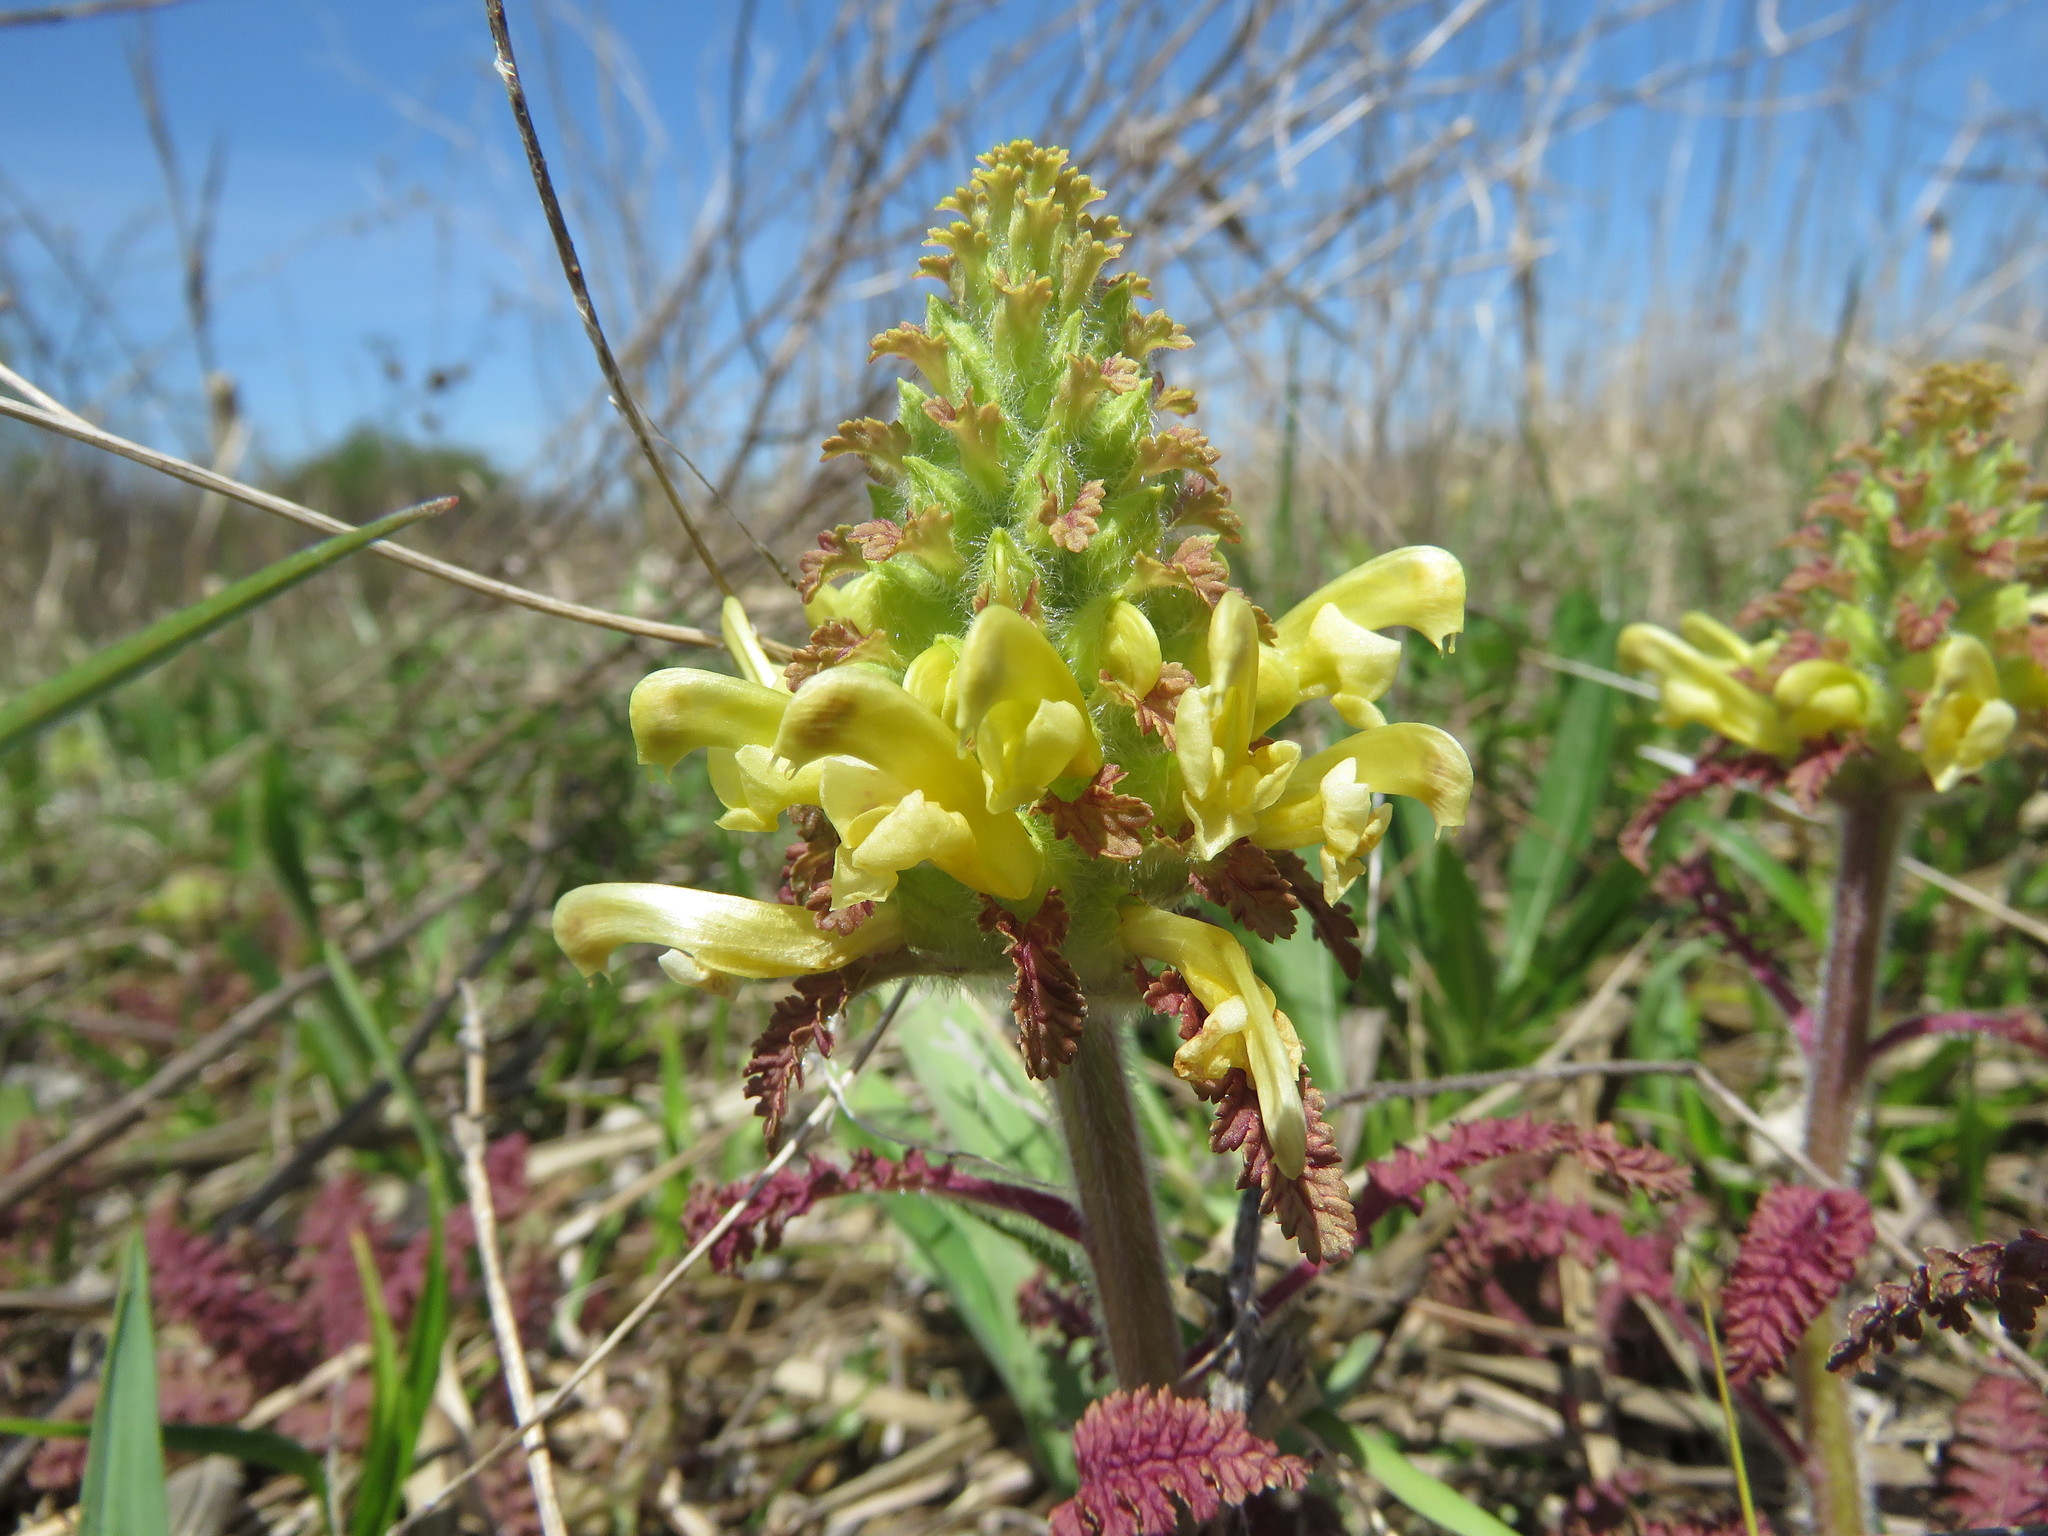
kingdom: Plantae
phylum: Tracheophyta
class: Magnoliopsida
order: Lamiales
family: Orobanchaceae
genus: Pedicularis
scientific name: Pedicularis canadensis
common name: Early lousewort
